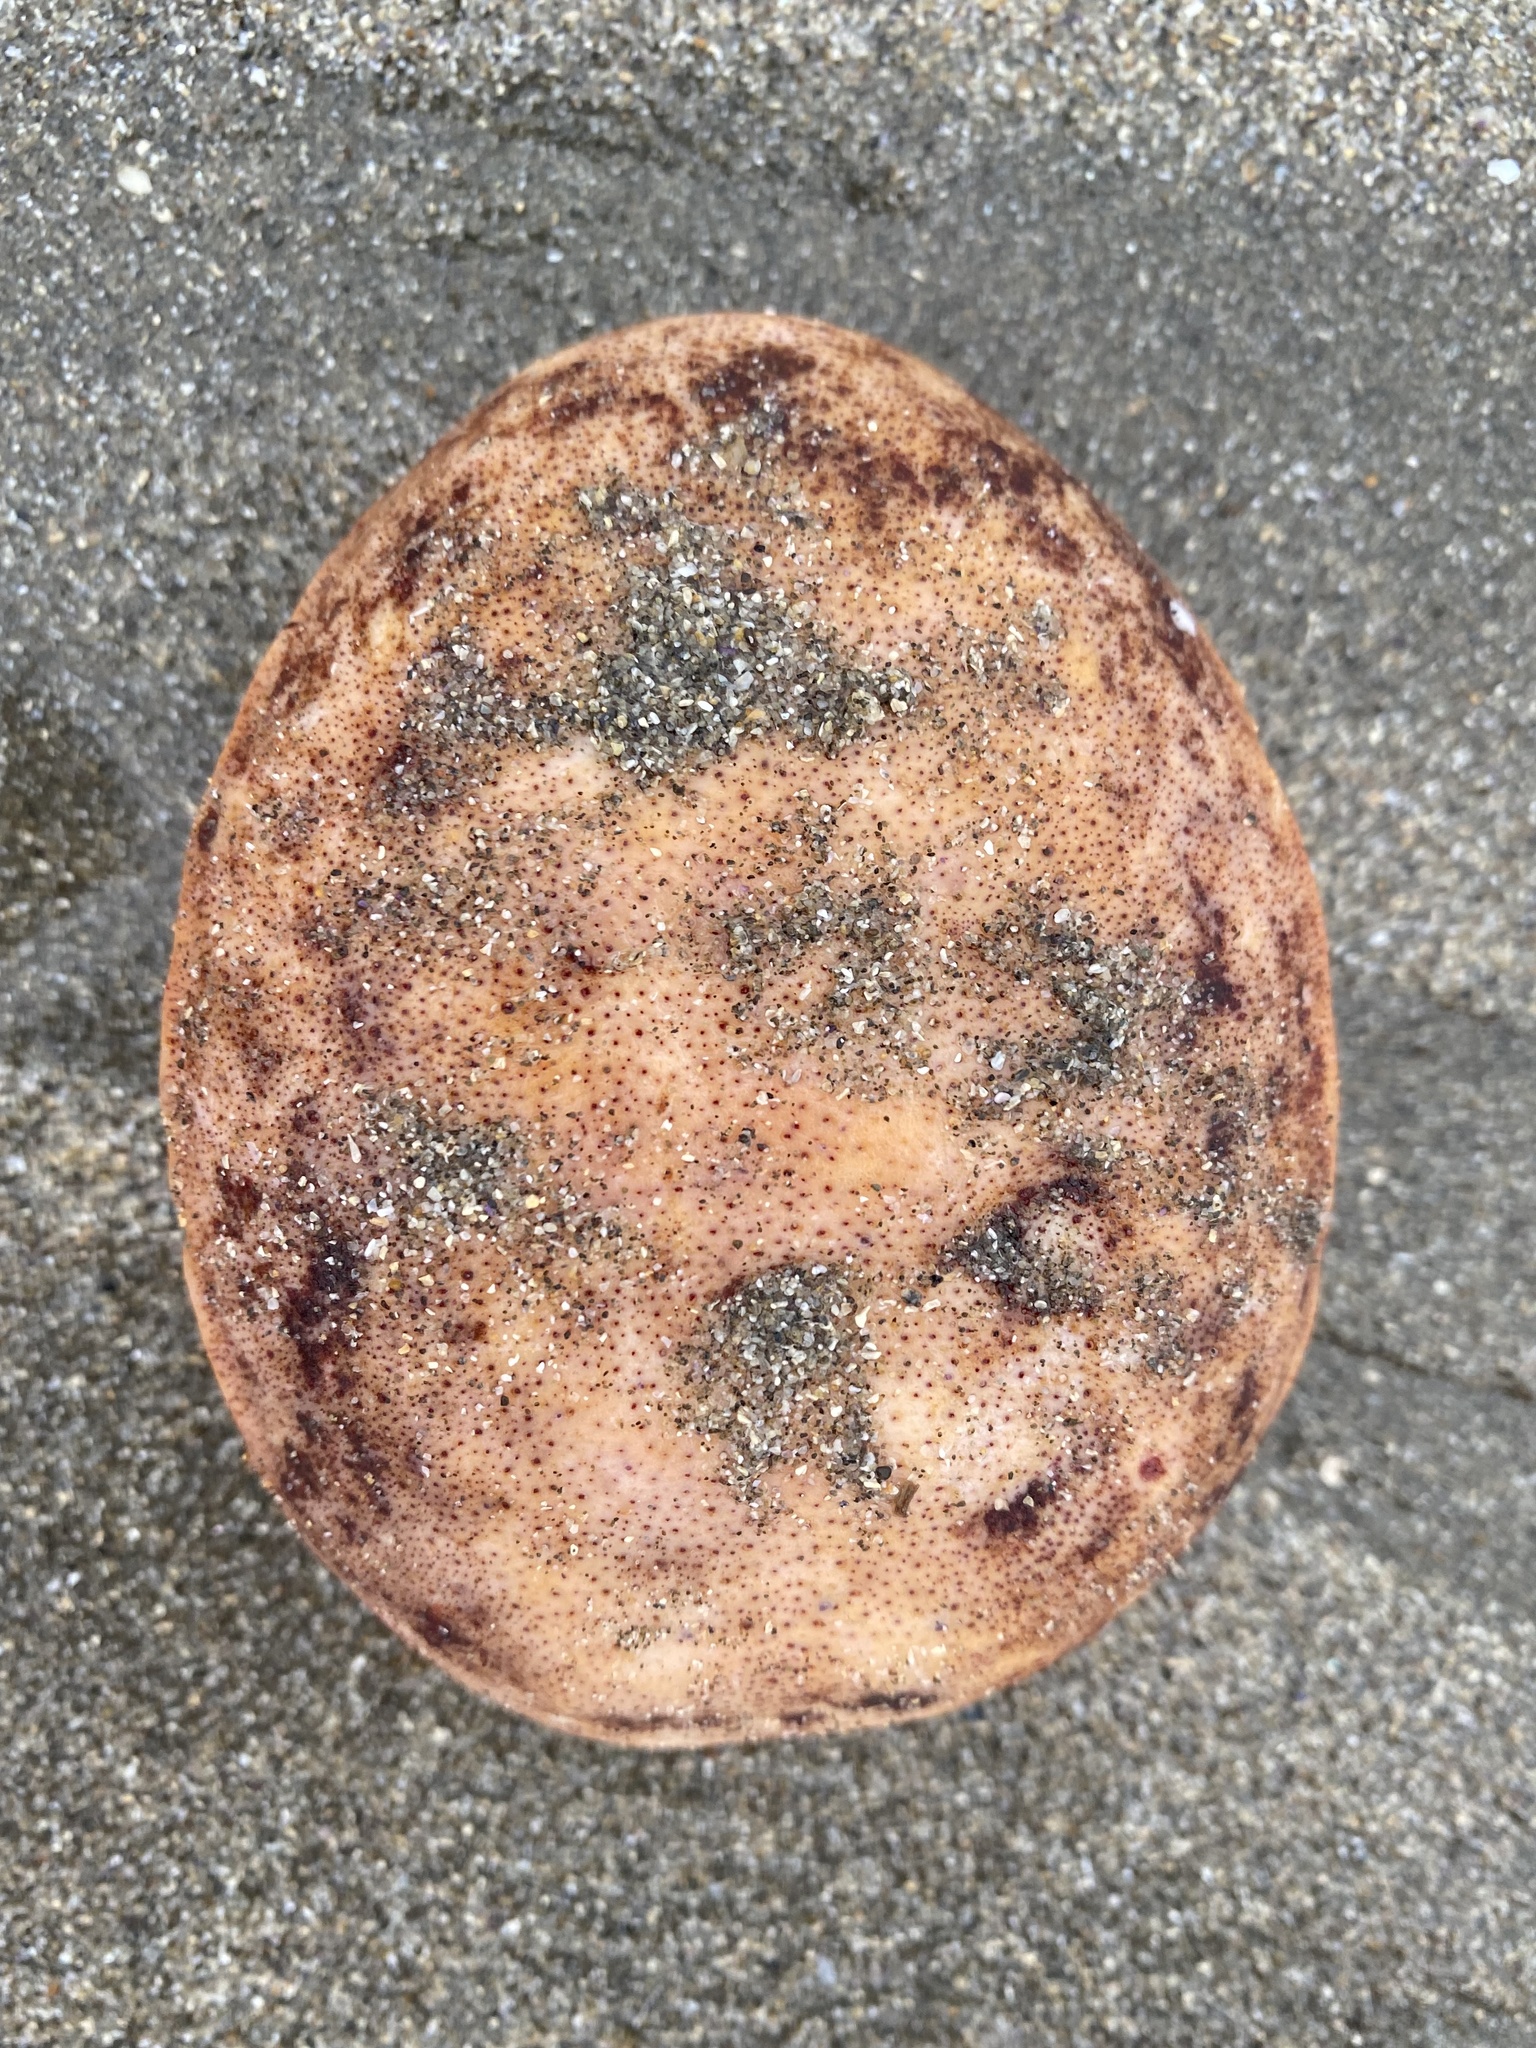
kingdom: Animalia
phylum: Mollusca
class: Polyplacophora
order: Chitonida
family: Acanthochitonidae
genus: Cryptochiton
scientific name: Cryptochiton stelleri
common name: Giant pacific chiton
